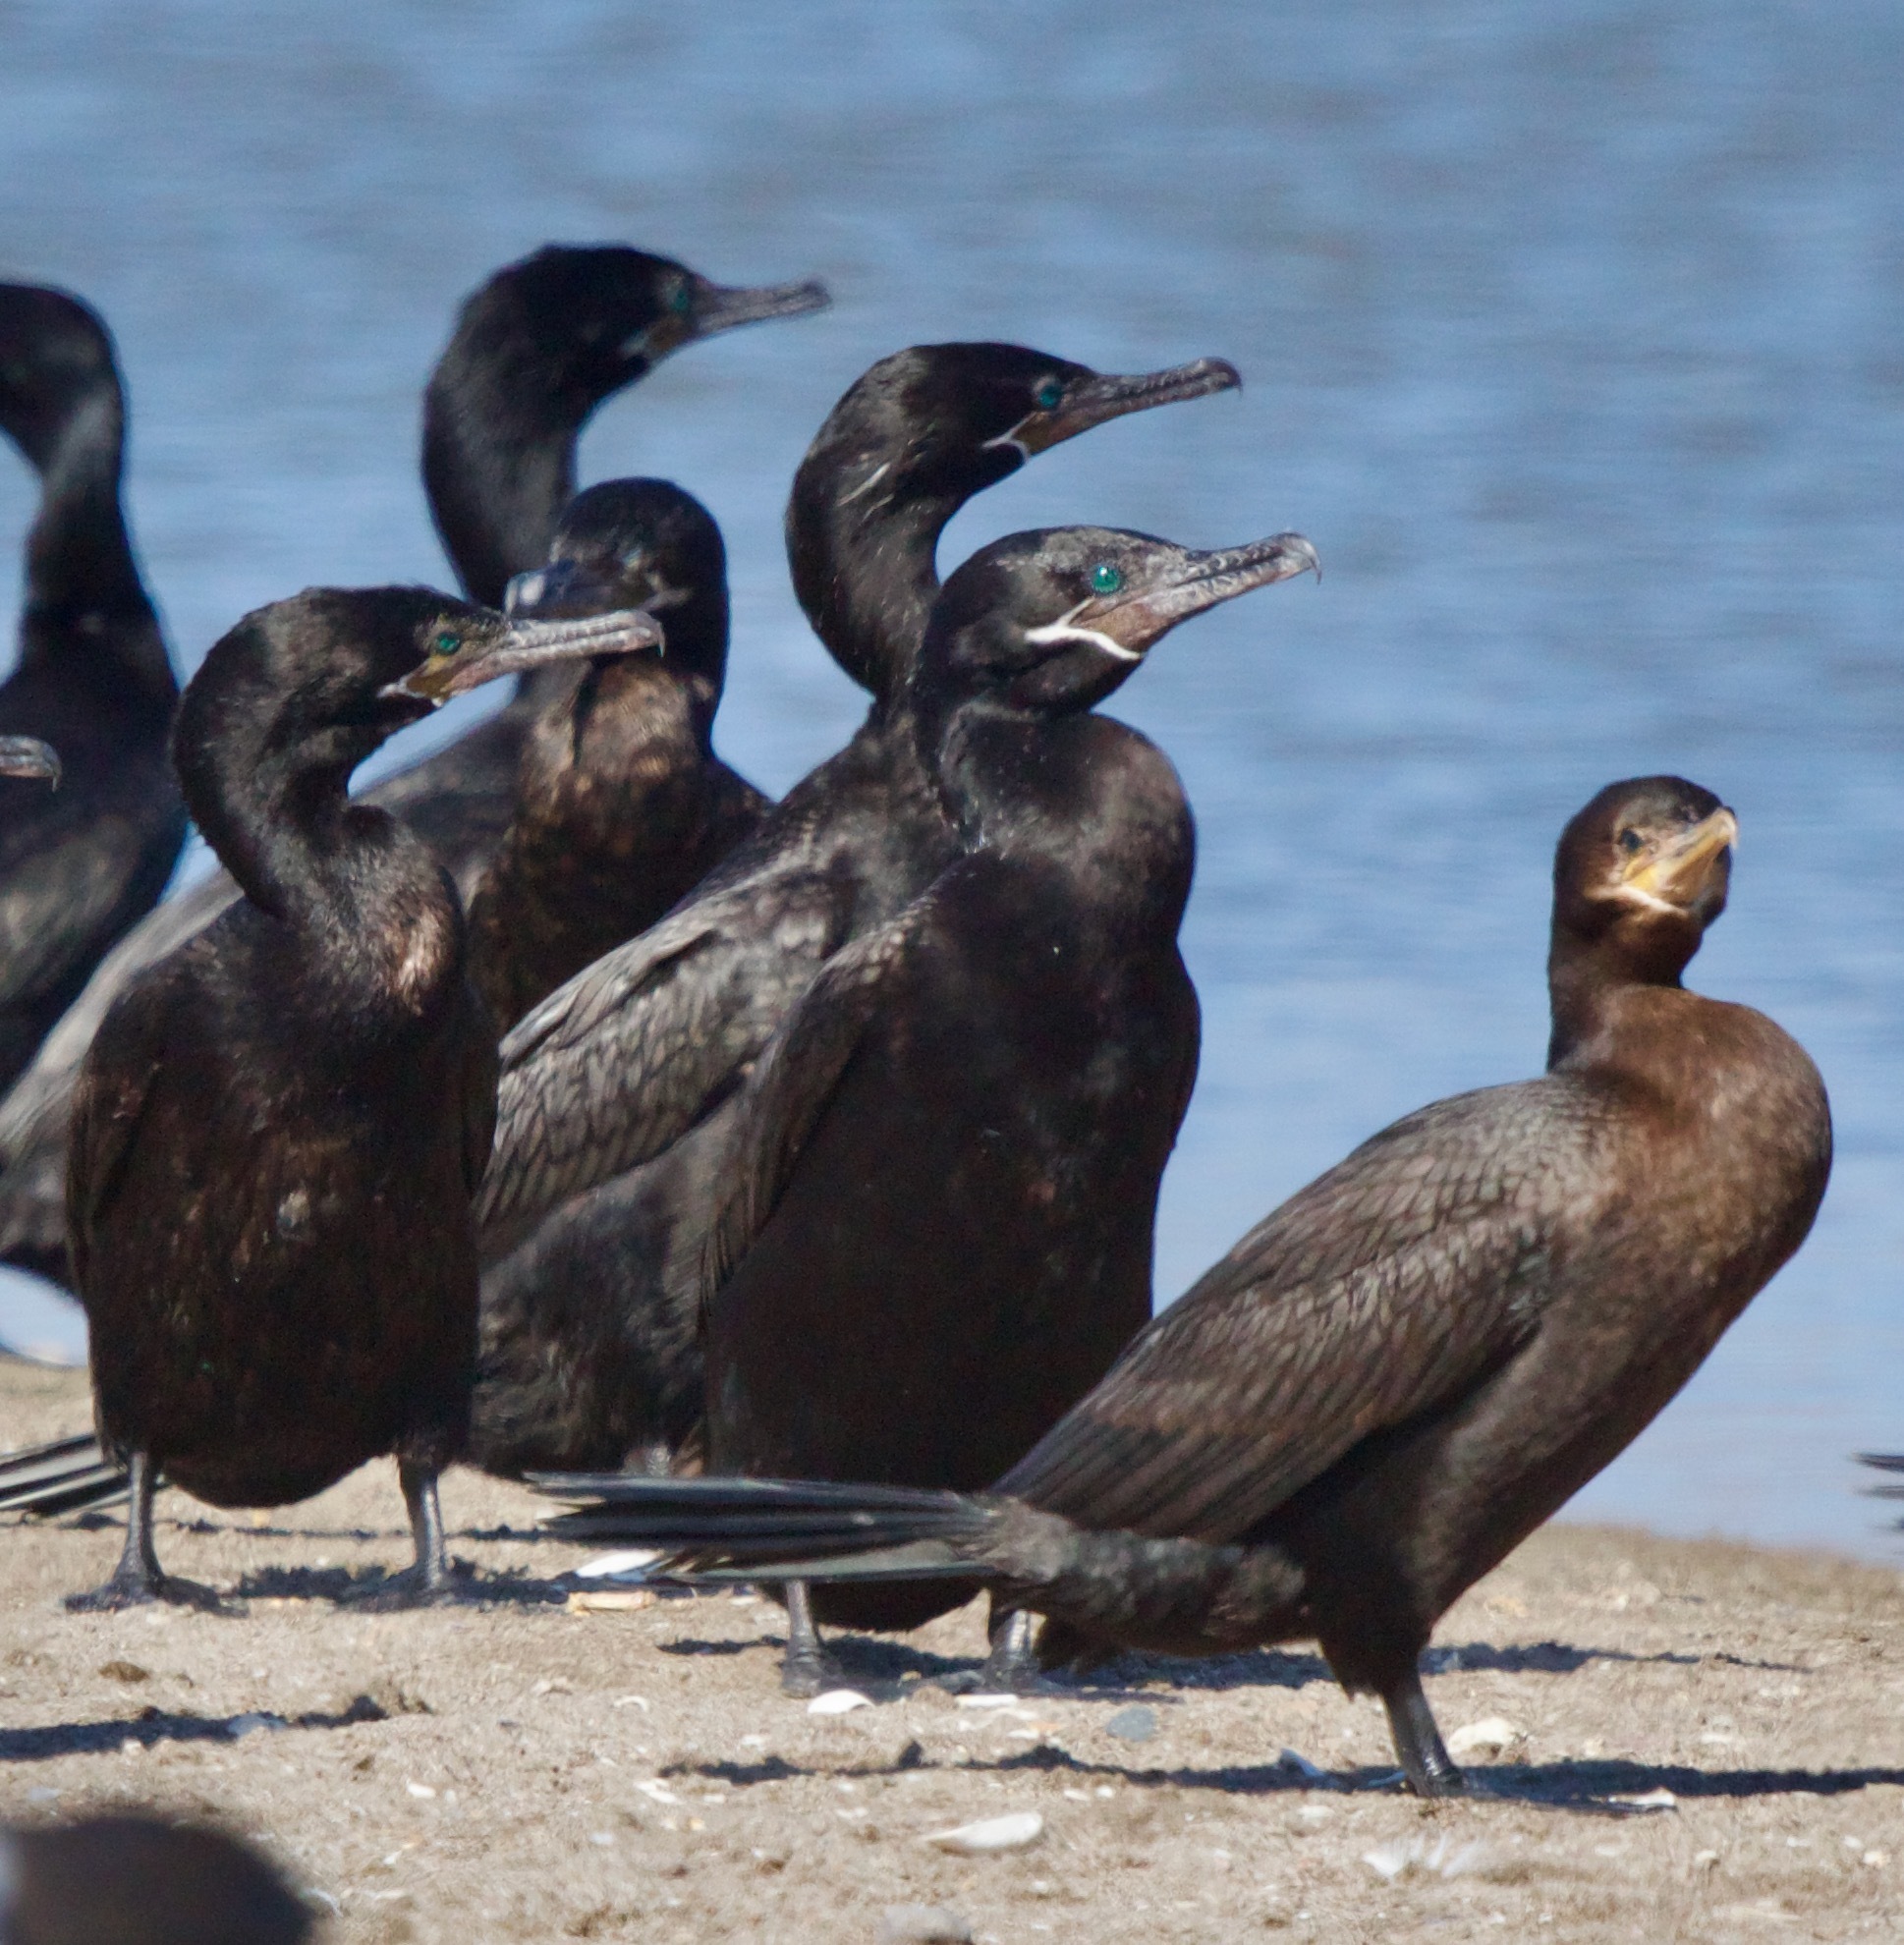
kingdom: Animalia
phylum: Chordata
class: Aves
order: Suliformes
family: Phalacrocoracidae
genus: Phalacrocorax
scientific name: Phalacrocorax brasilianus
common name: Neotropic cormorant
